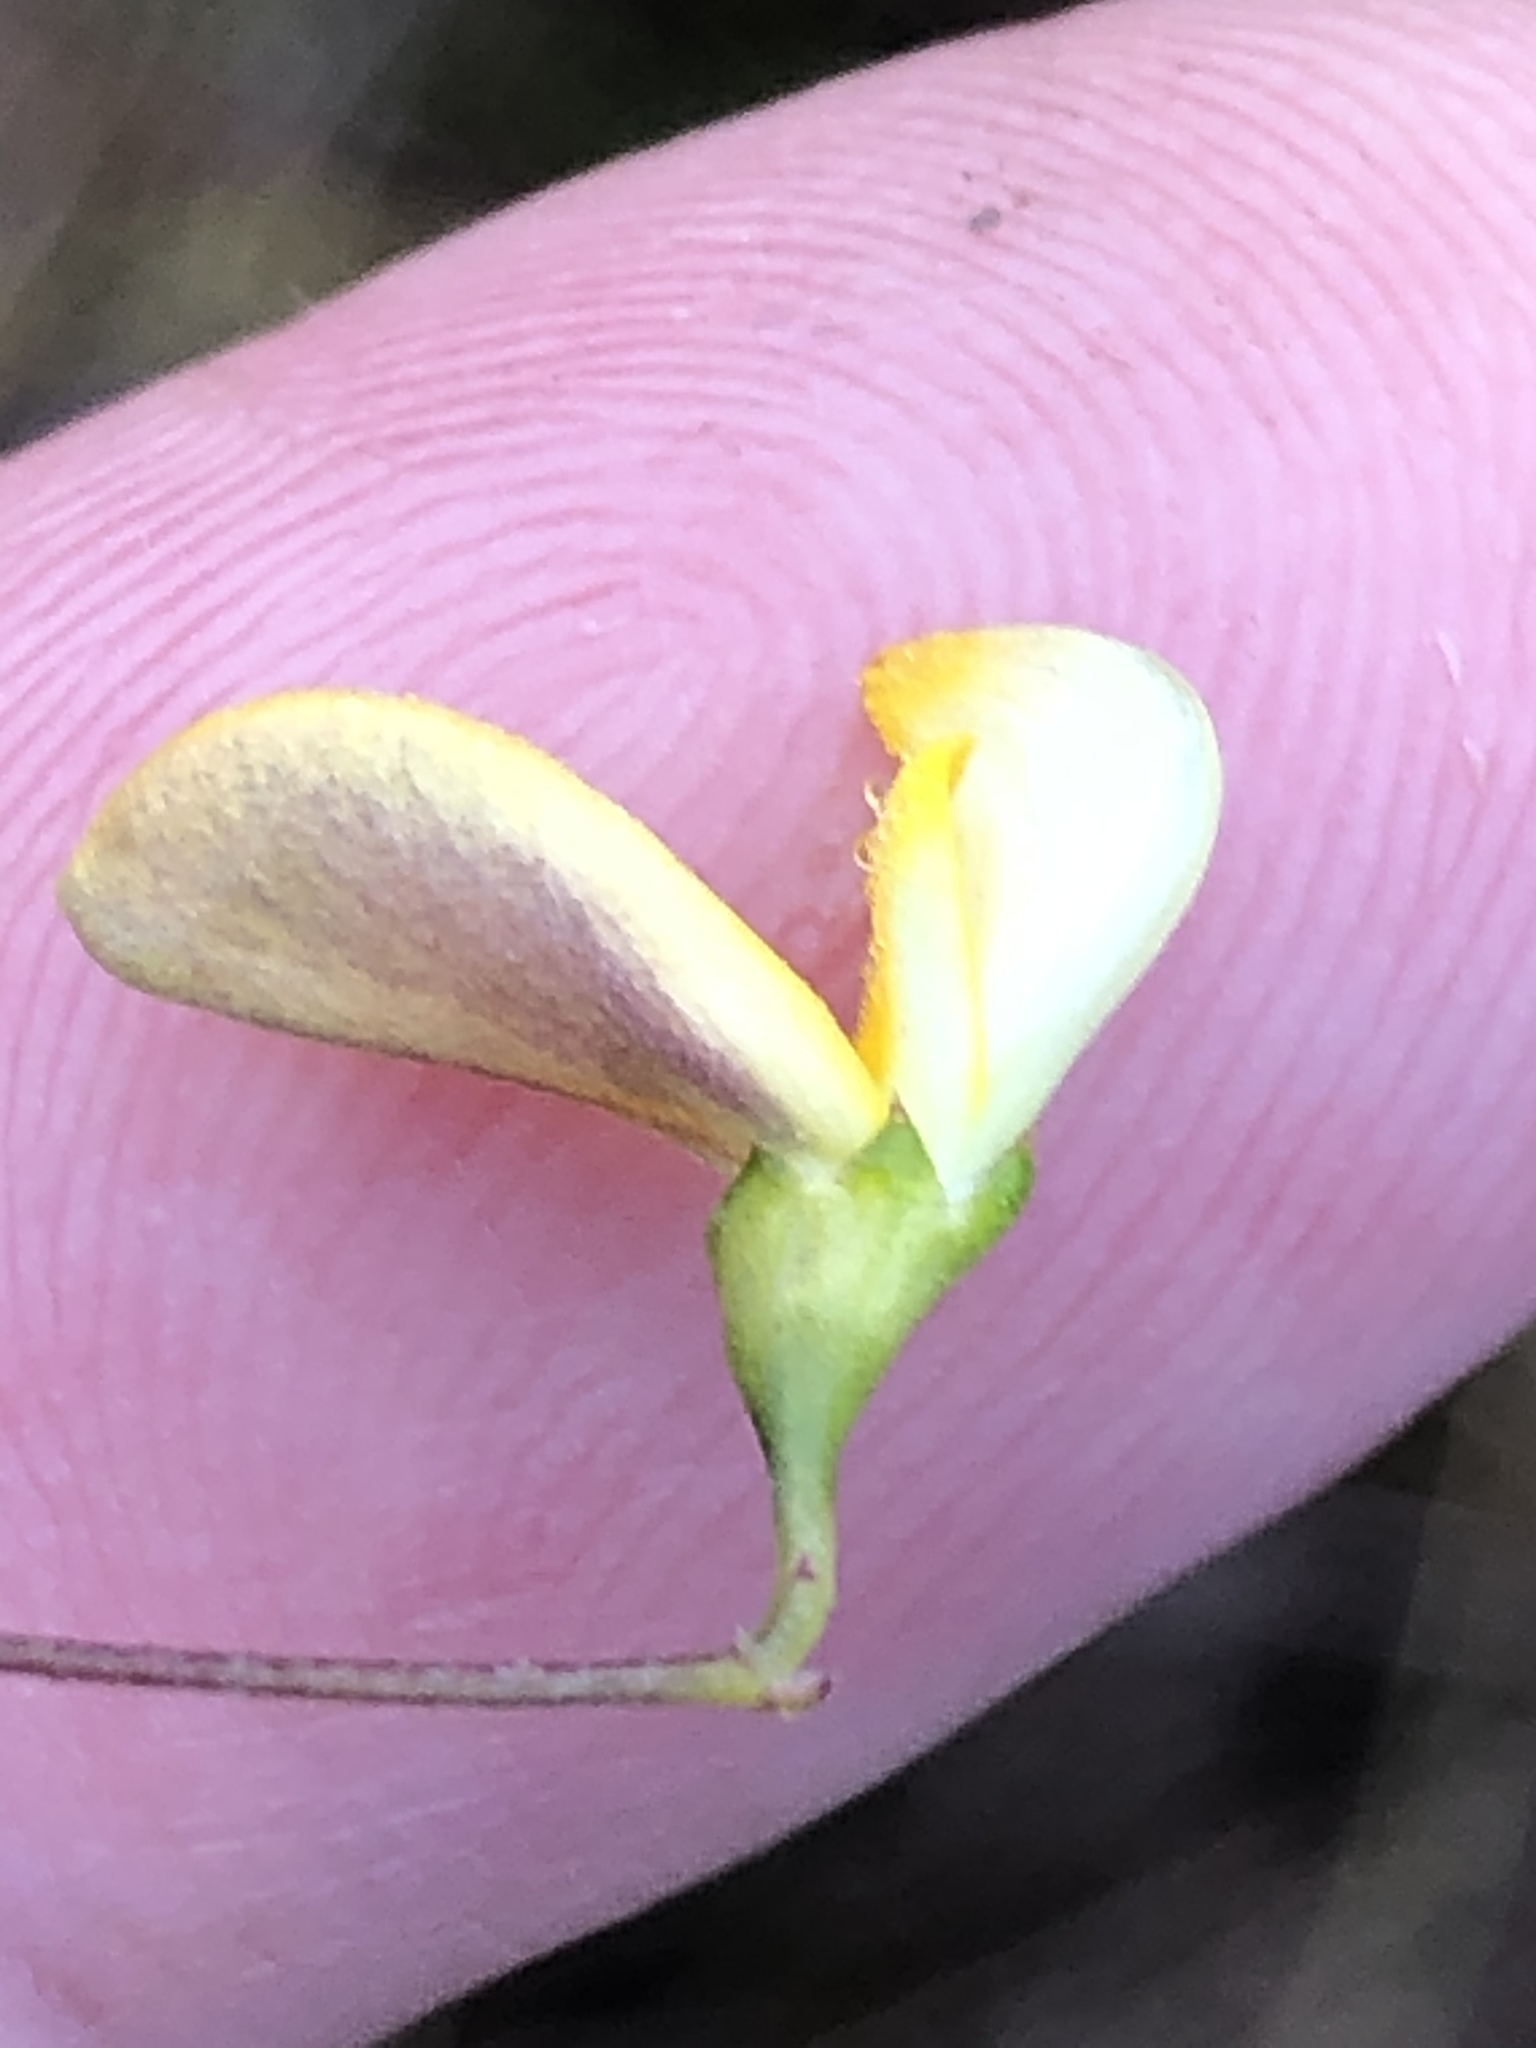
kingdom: Plantae
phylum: Tracheophyta
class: Magnoliopsida
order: Fabales
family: Fabaceae
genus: Aspalathus
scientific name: Aspalathus biflora
